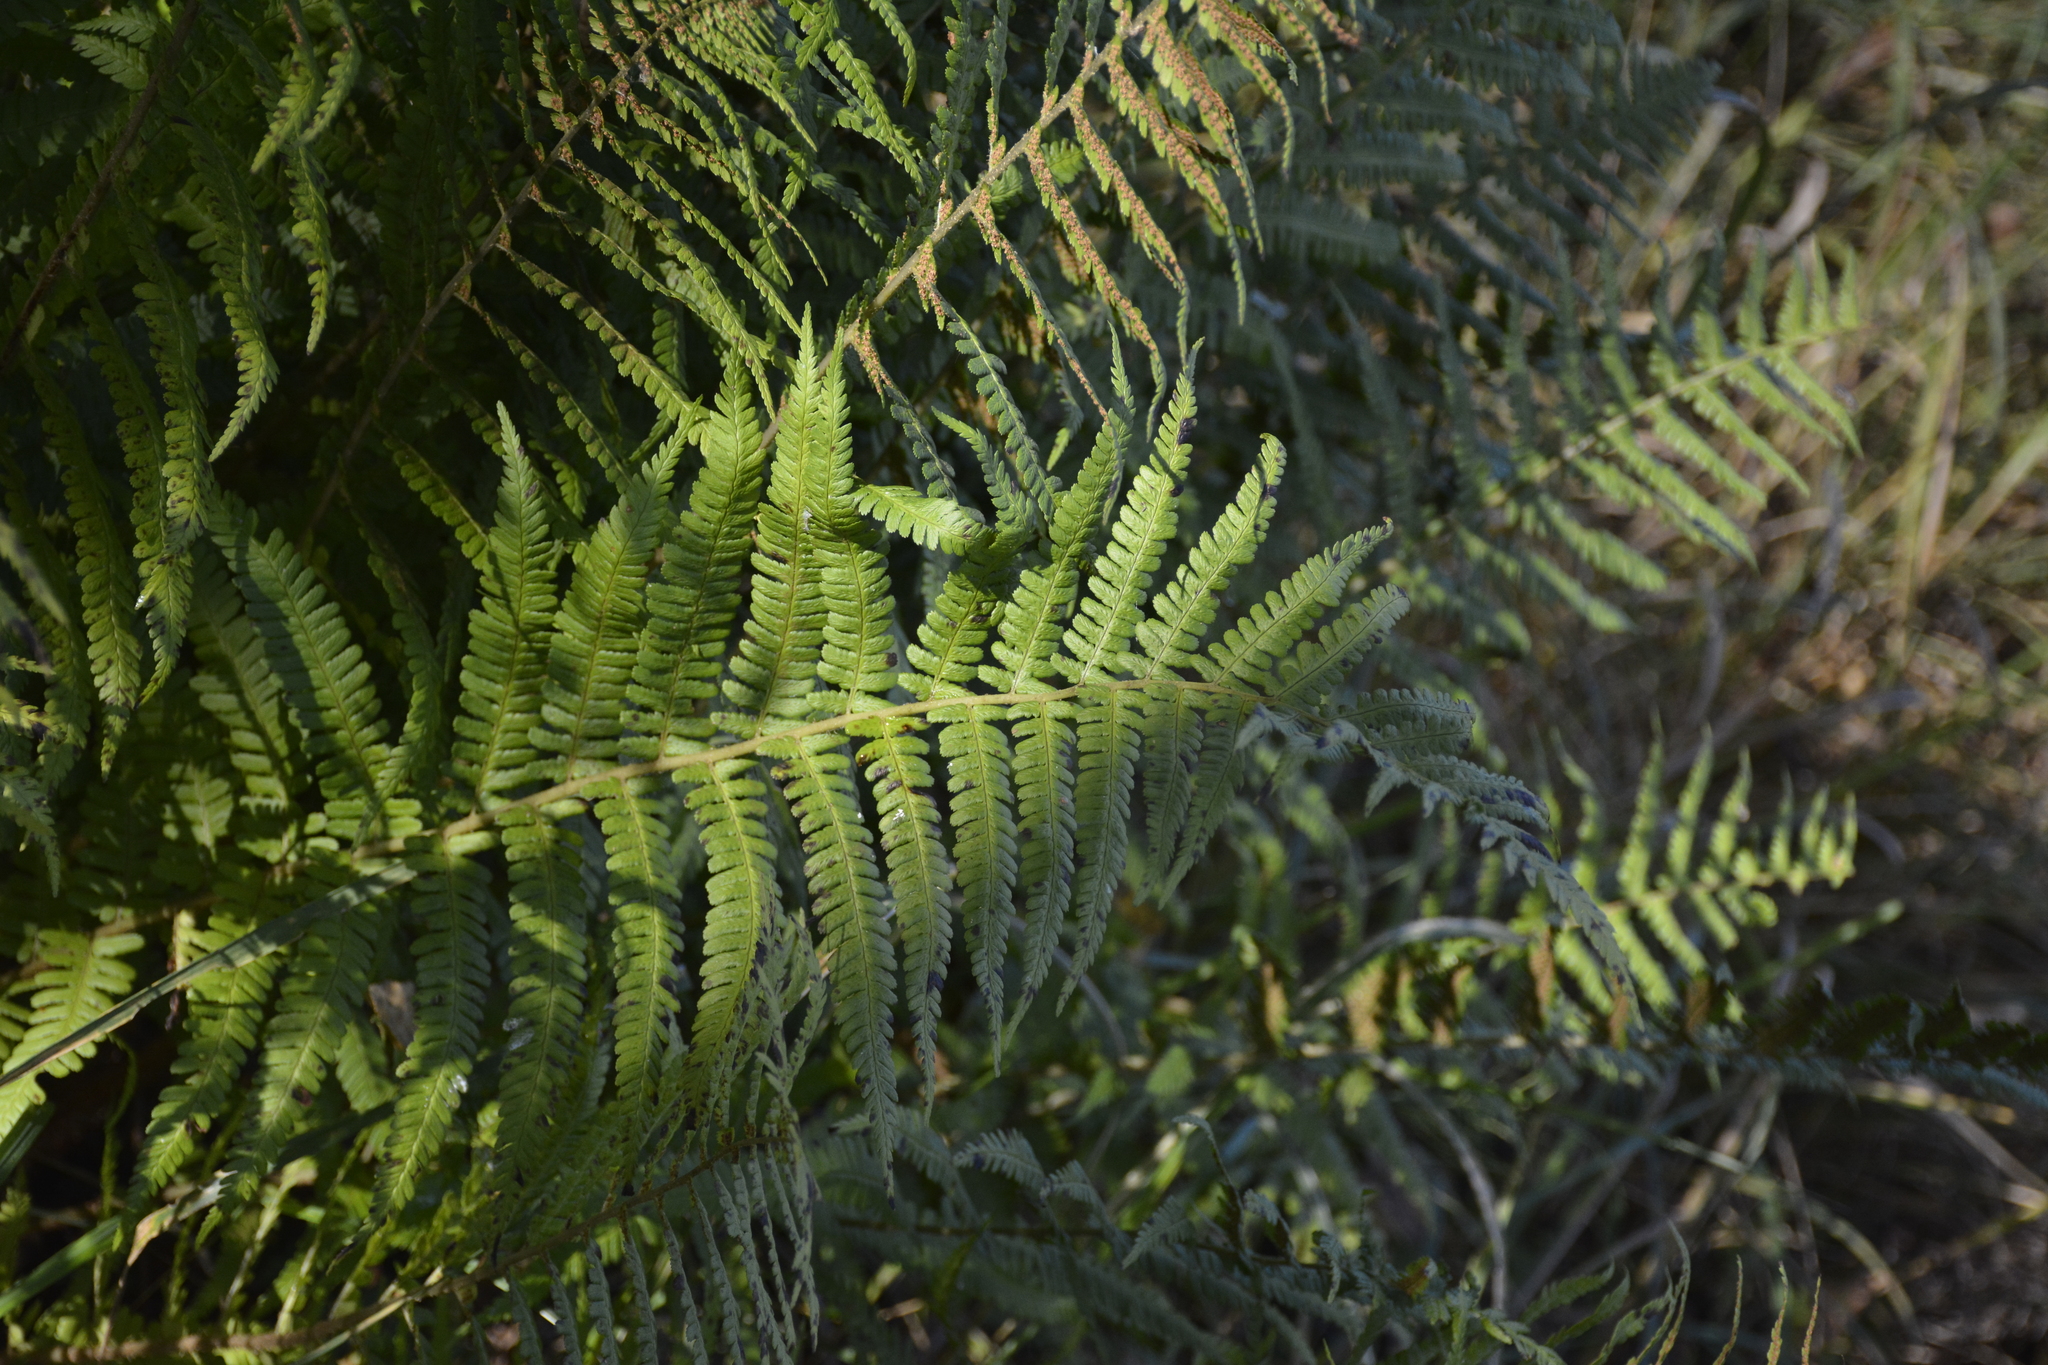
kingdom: Plantae
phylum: Tracheophyta
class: Polypodiopsida
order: Polypodiales
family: Dryopteridaceae
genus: Dryopteris
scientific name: Dryopteris filix-mas
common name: Male fern
